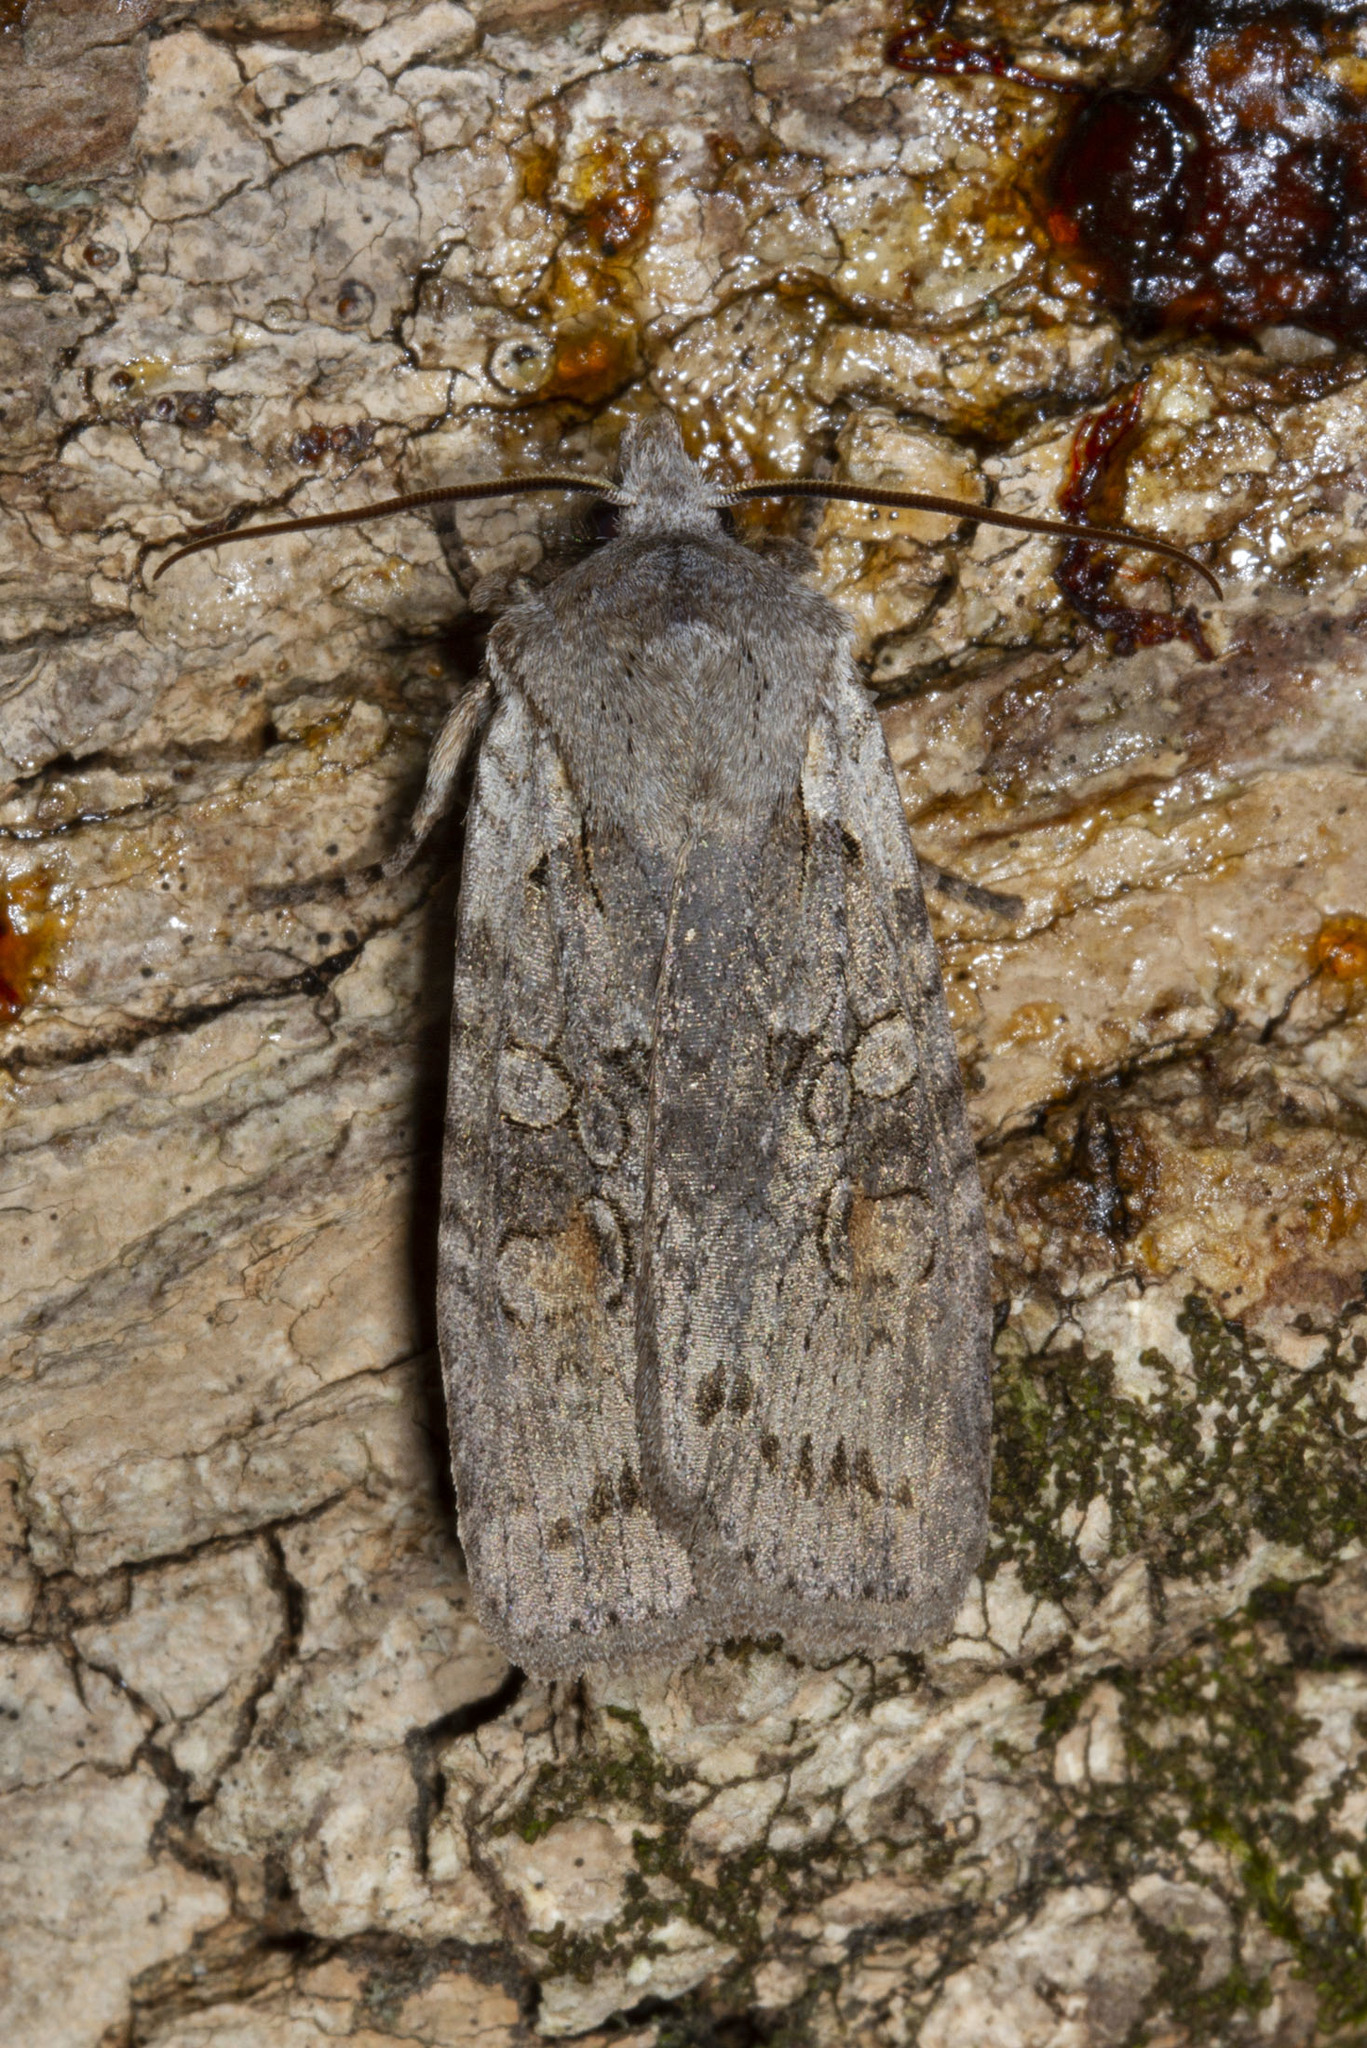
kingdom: Animalia
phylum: Arthropoda
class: Insecta
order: Lepidoptera
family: Noctuidae
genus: Lithophane
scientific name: Lithophane antennata
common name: Ashen pinion
